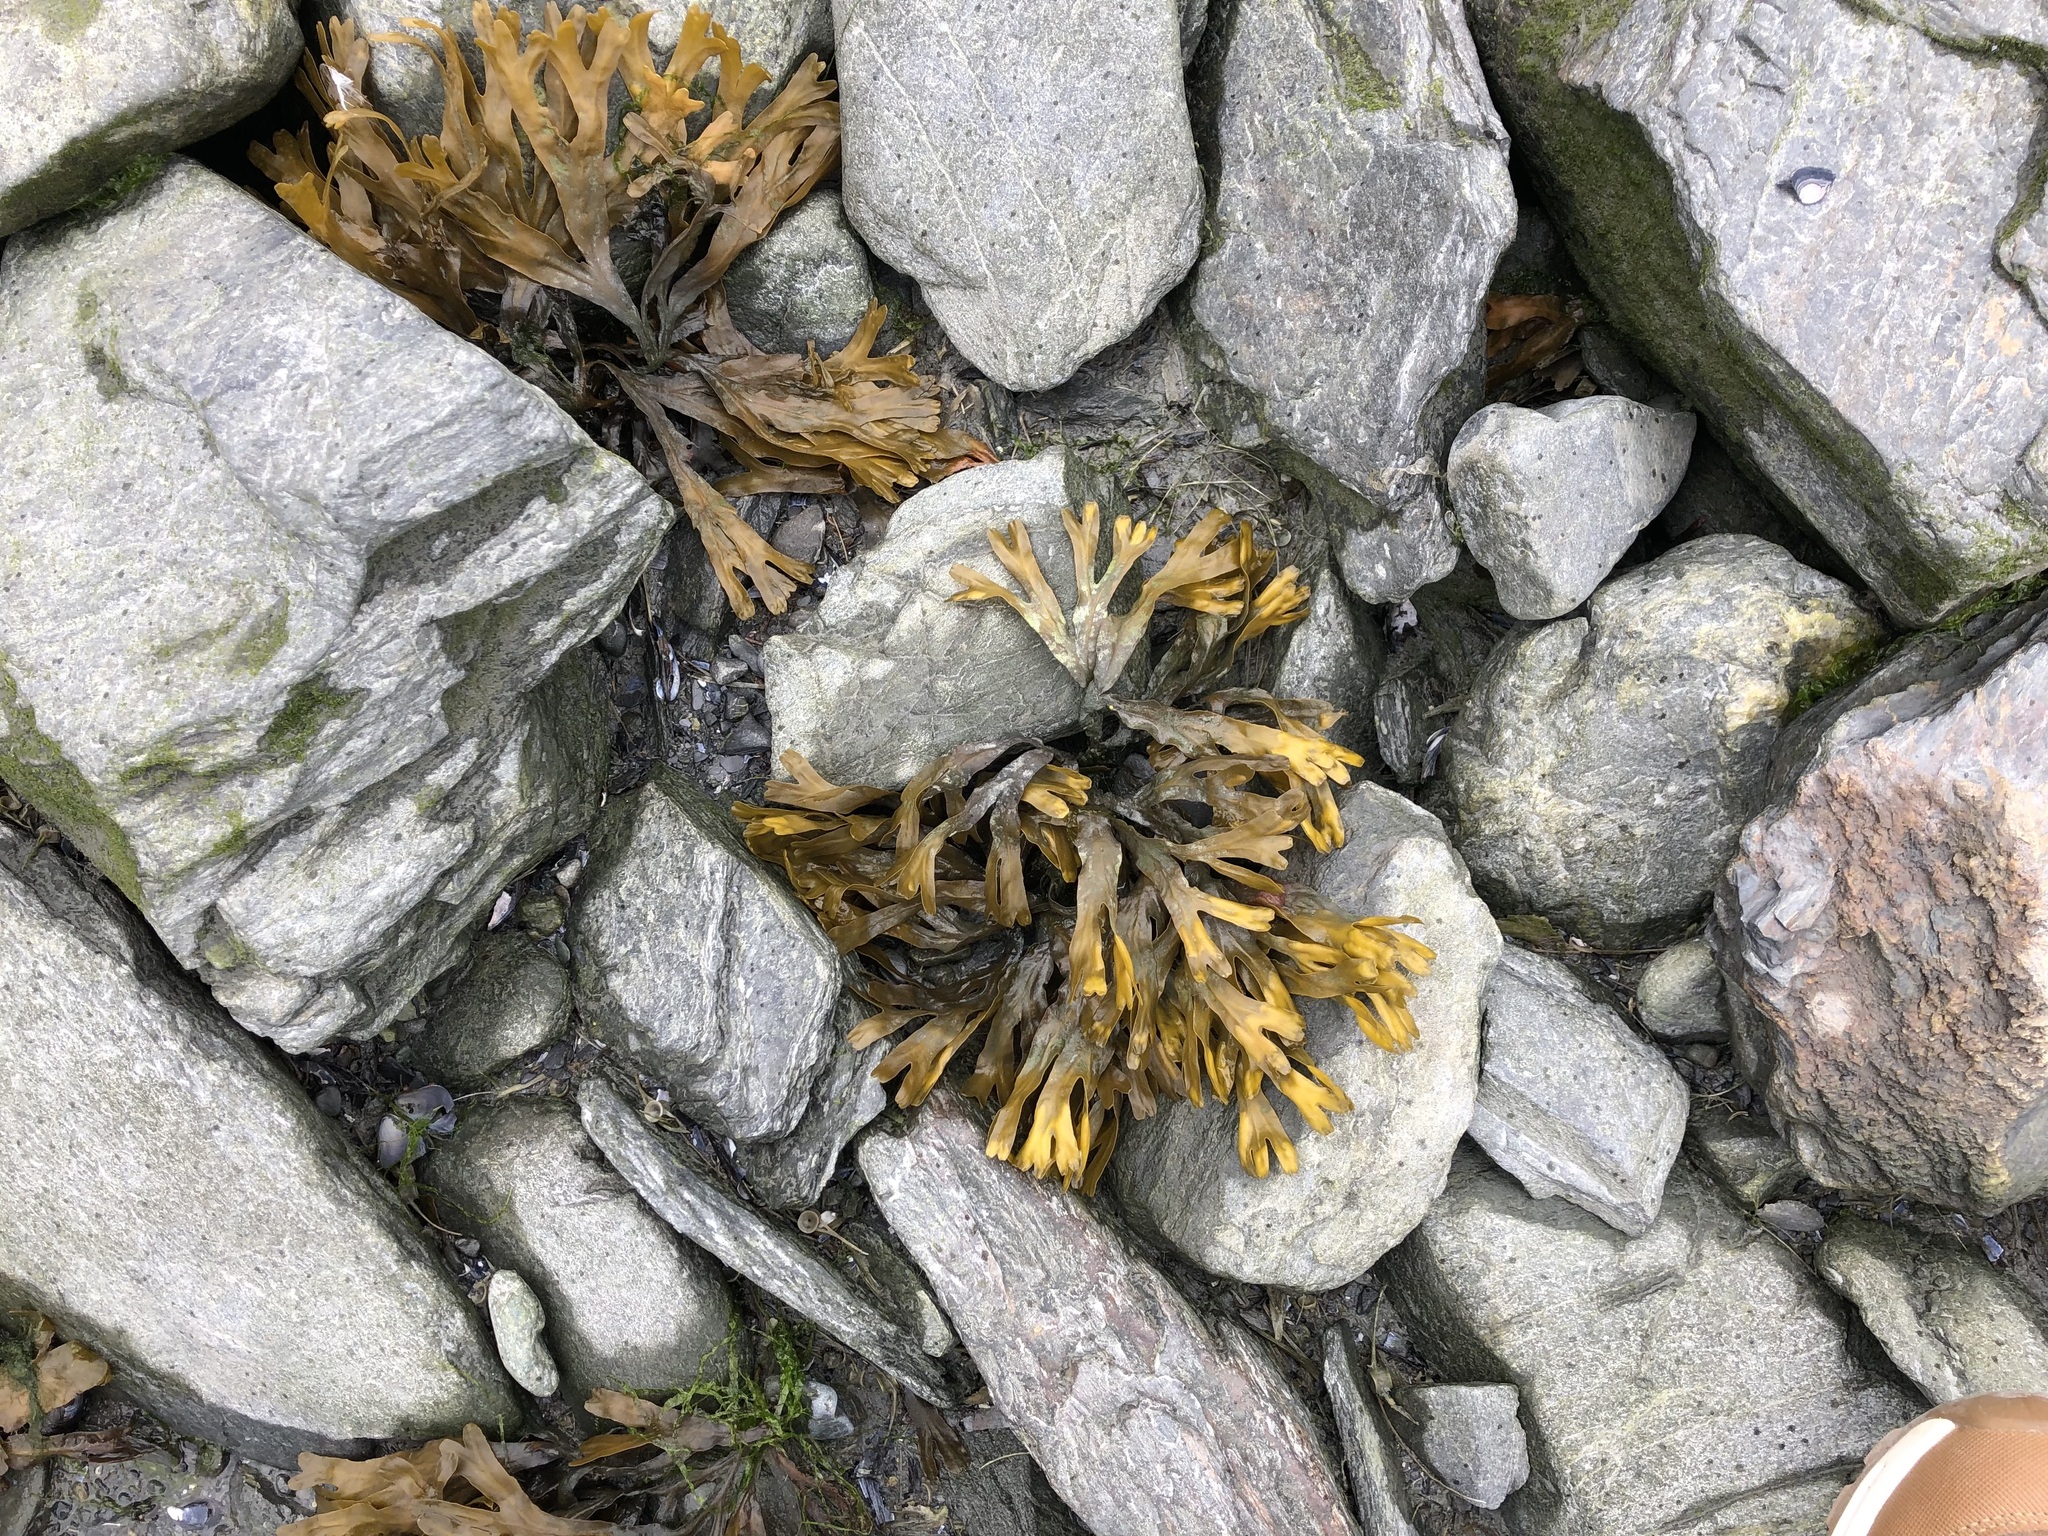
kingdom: Chromista
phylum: Ochrophyta
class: Phaeophyceae
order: Fucales
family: Fucaceae
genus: Fucus
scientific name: Fucus distichus
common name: Rockweed
